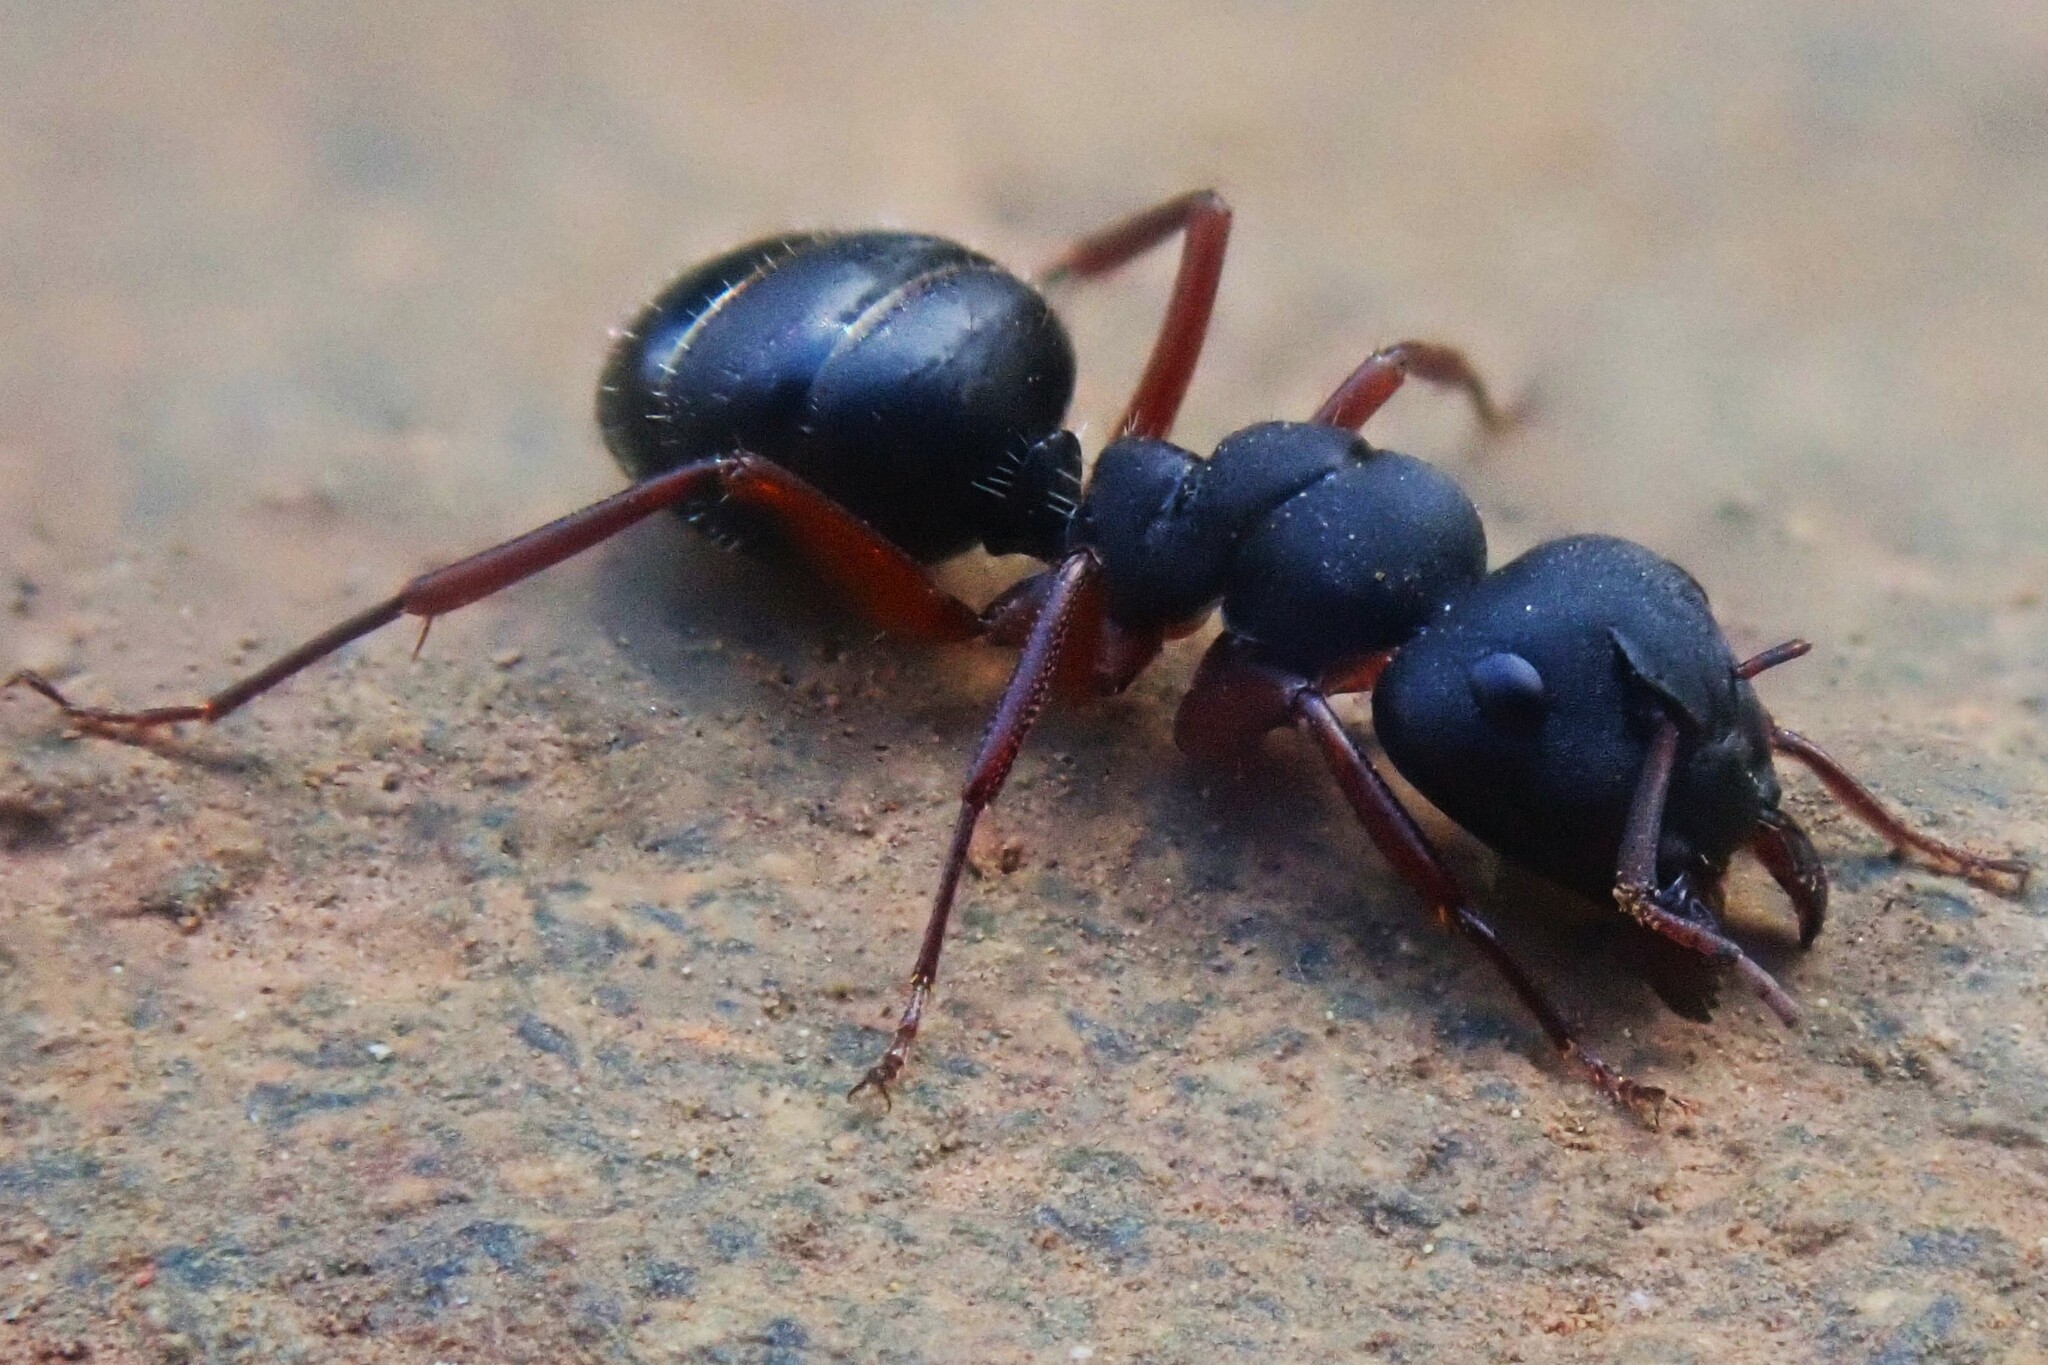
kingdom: Animalia
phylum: Arthropoda
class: Insecta
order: Hymenoptera
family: Formicidae
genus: Camponotus
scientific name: Camponotus scalaris
